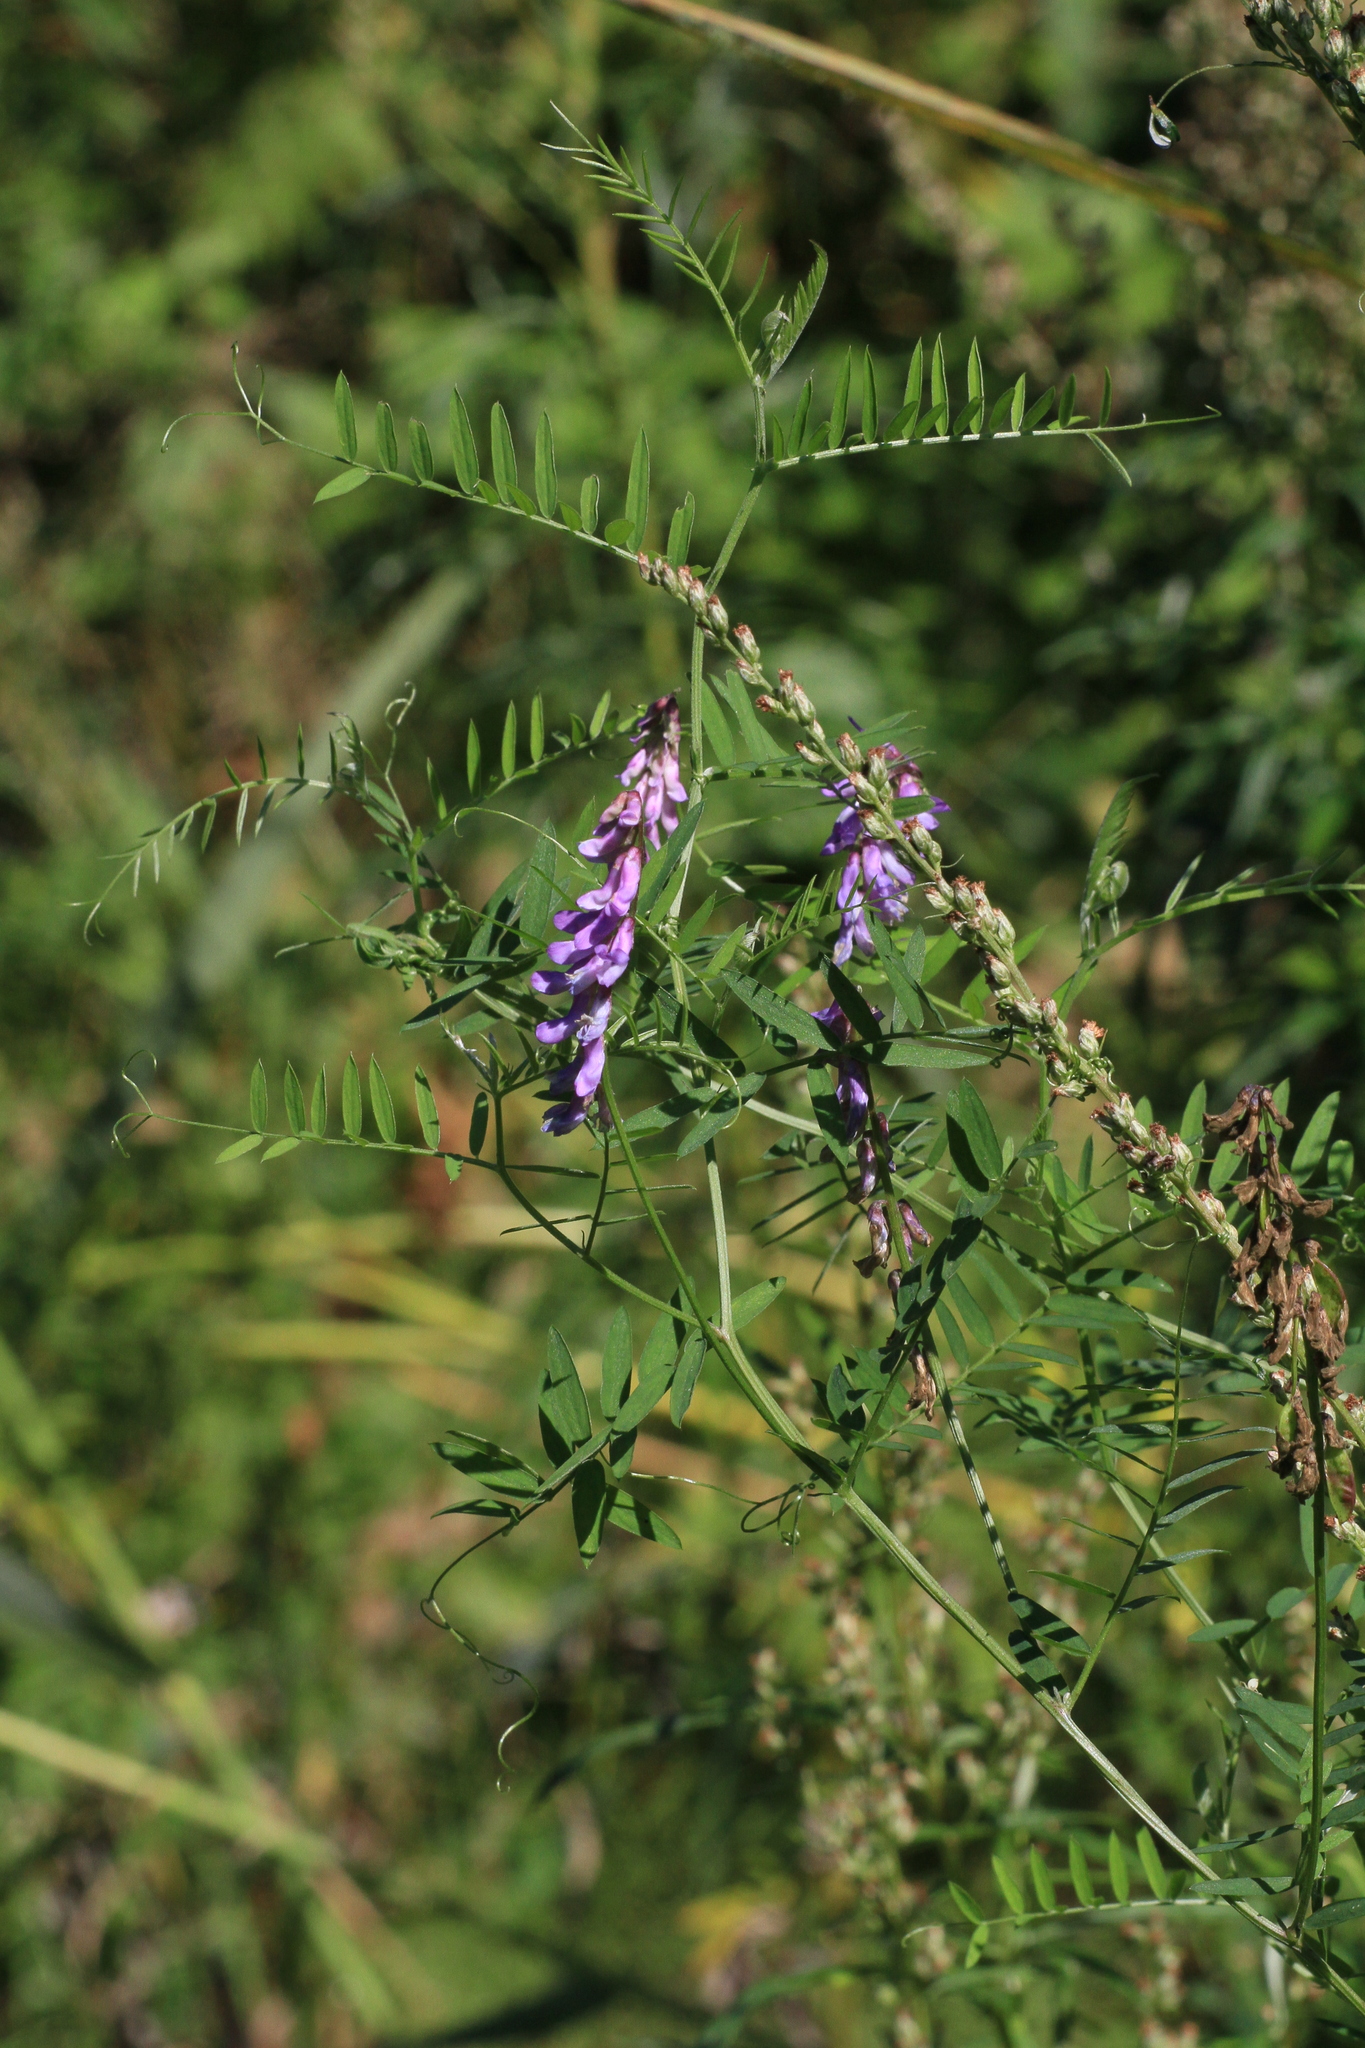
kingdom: Plantae
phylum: Tracheophyta
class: Magnoliopsida
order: Asterales
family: Asteraceae
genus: Artemisia
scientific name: Artemisia vulgaris
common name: Mugwort
